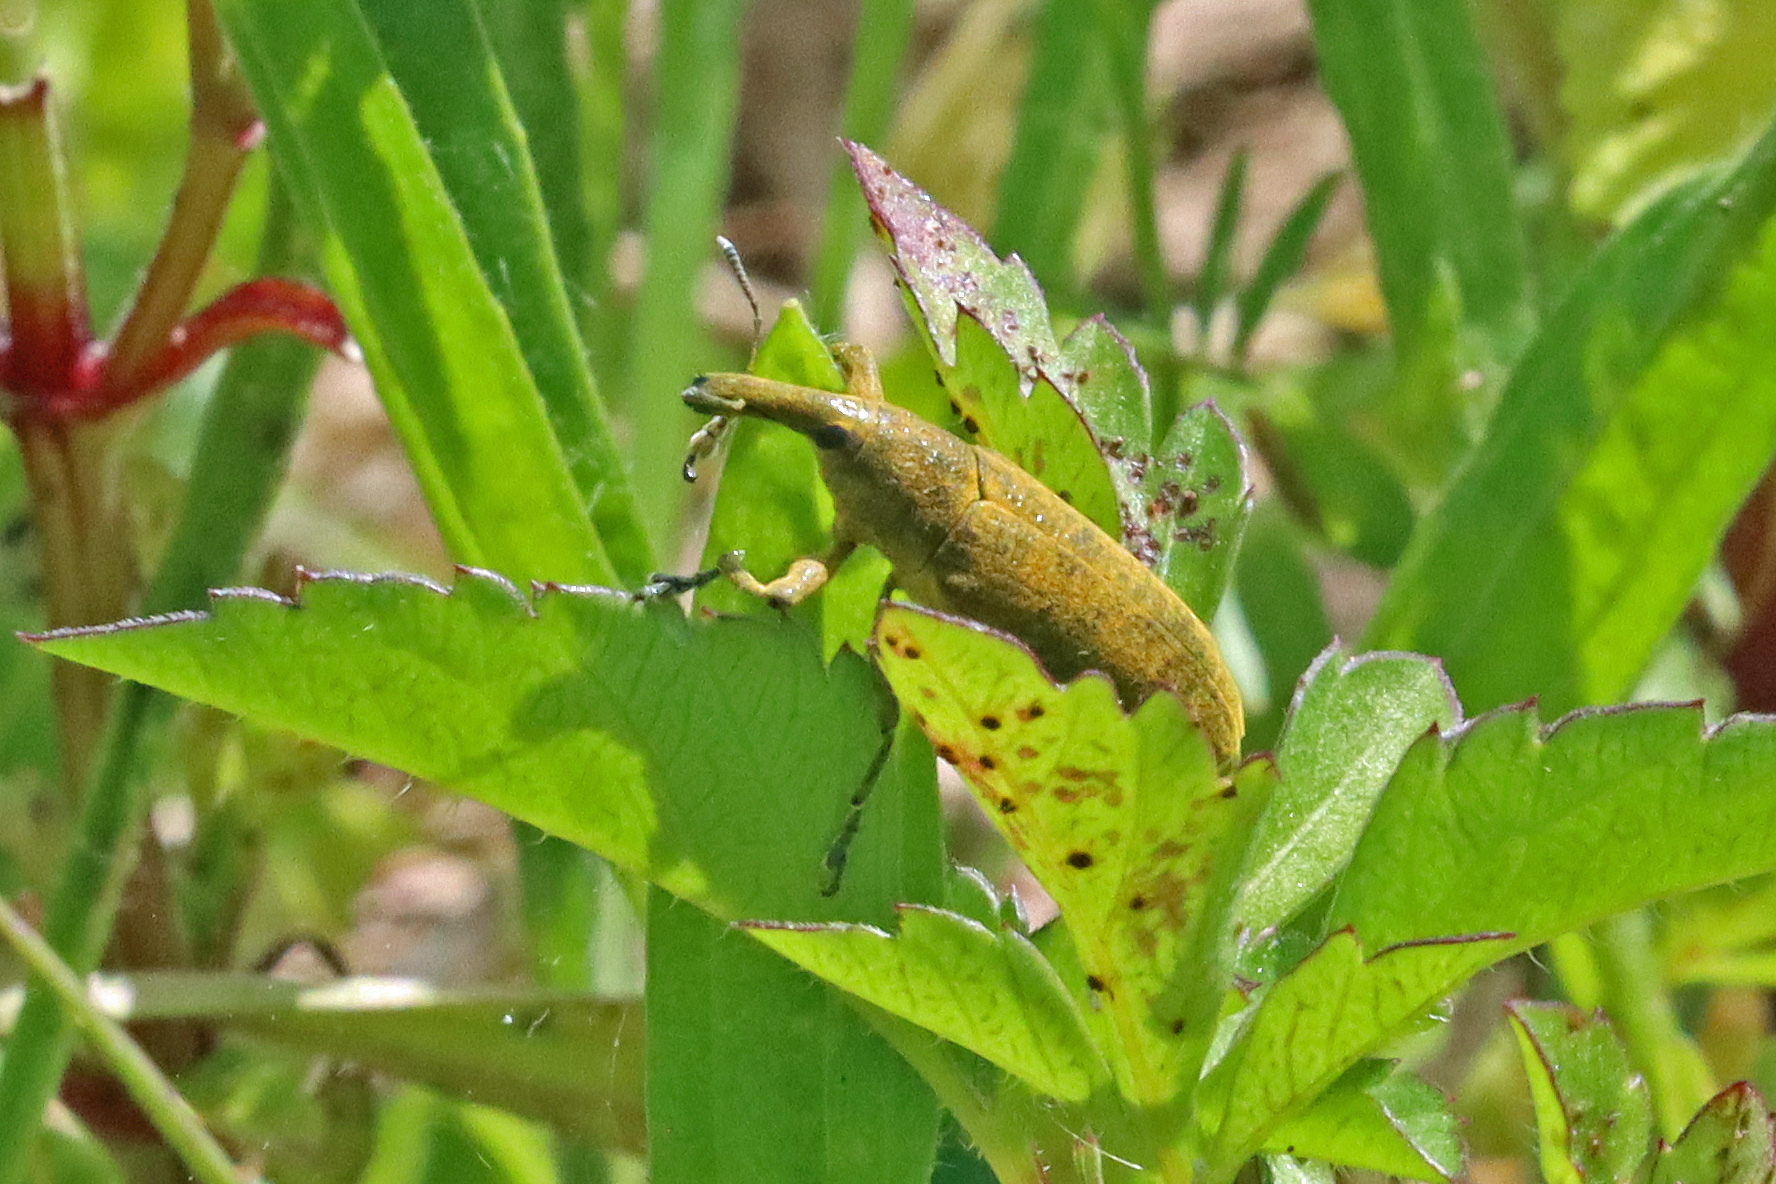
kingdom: Animalia
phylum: Arthropoda
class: Insecta
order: Coleoptera
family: Curculionidae
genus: Lixus
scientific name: Lixus pulverulentus
